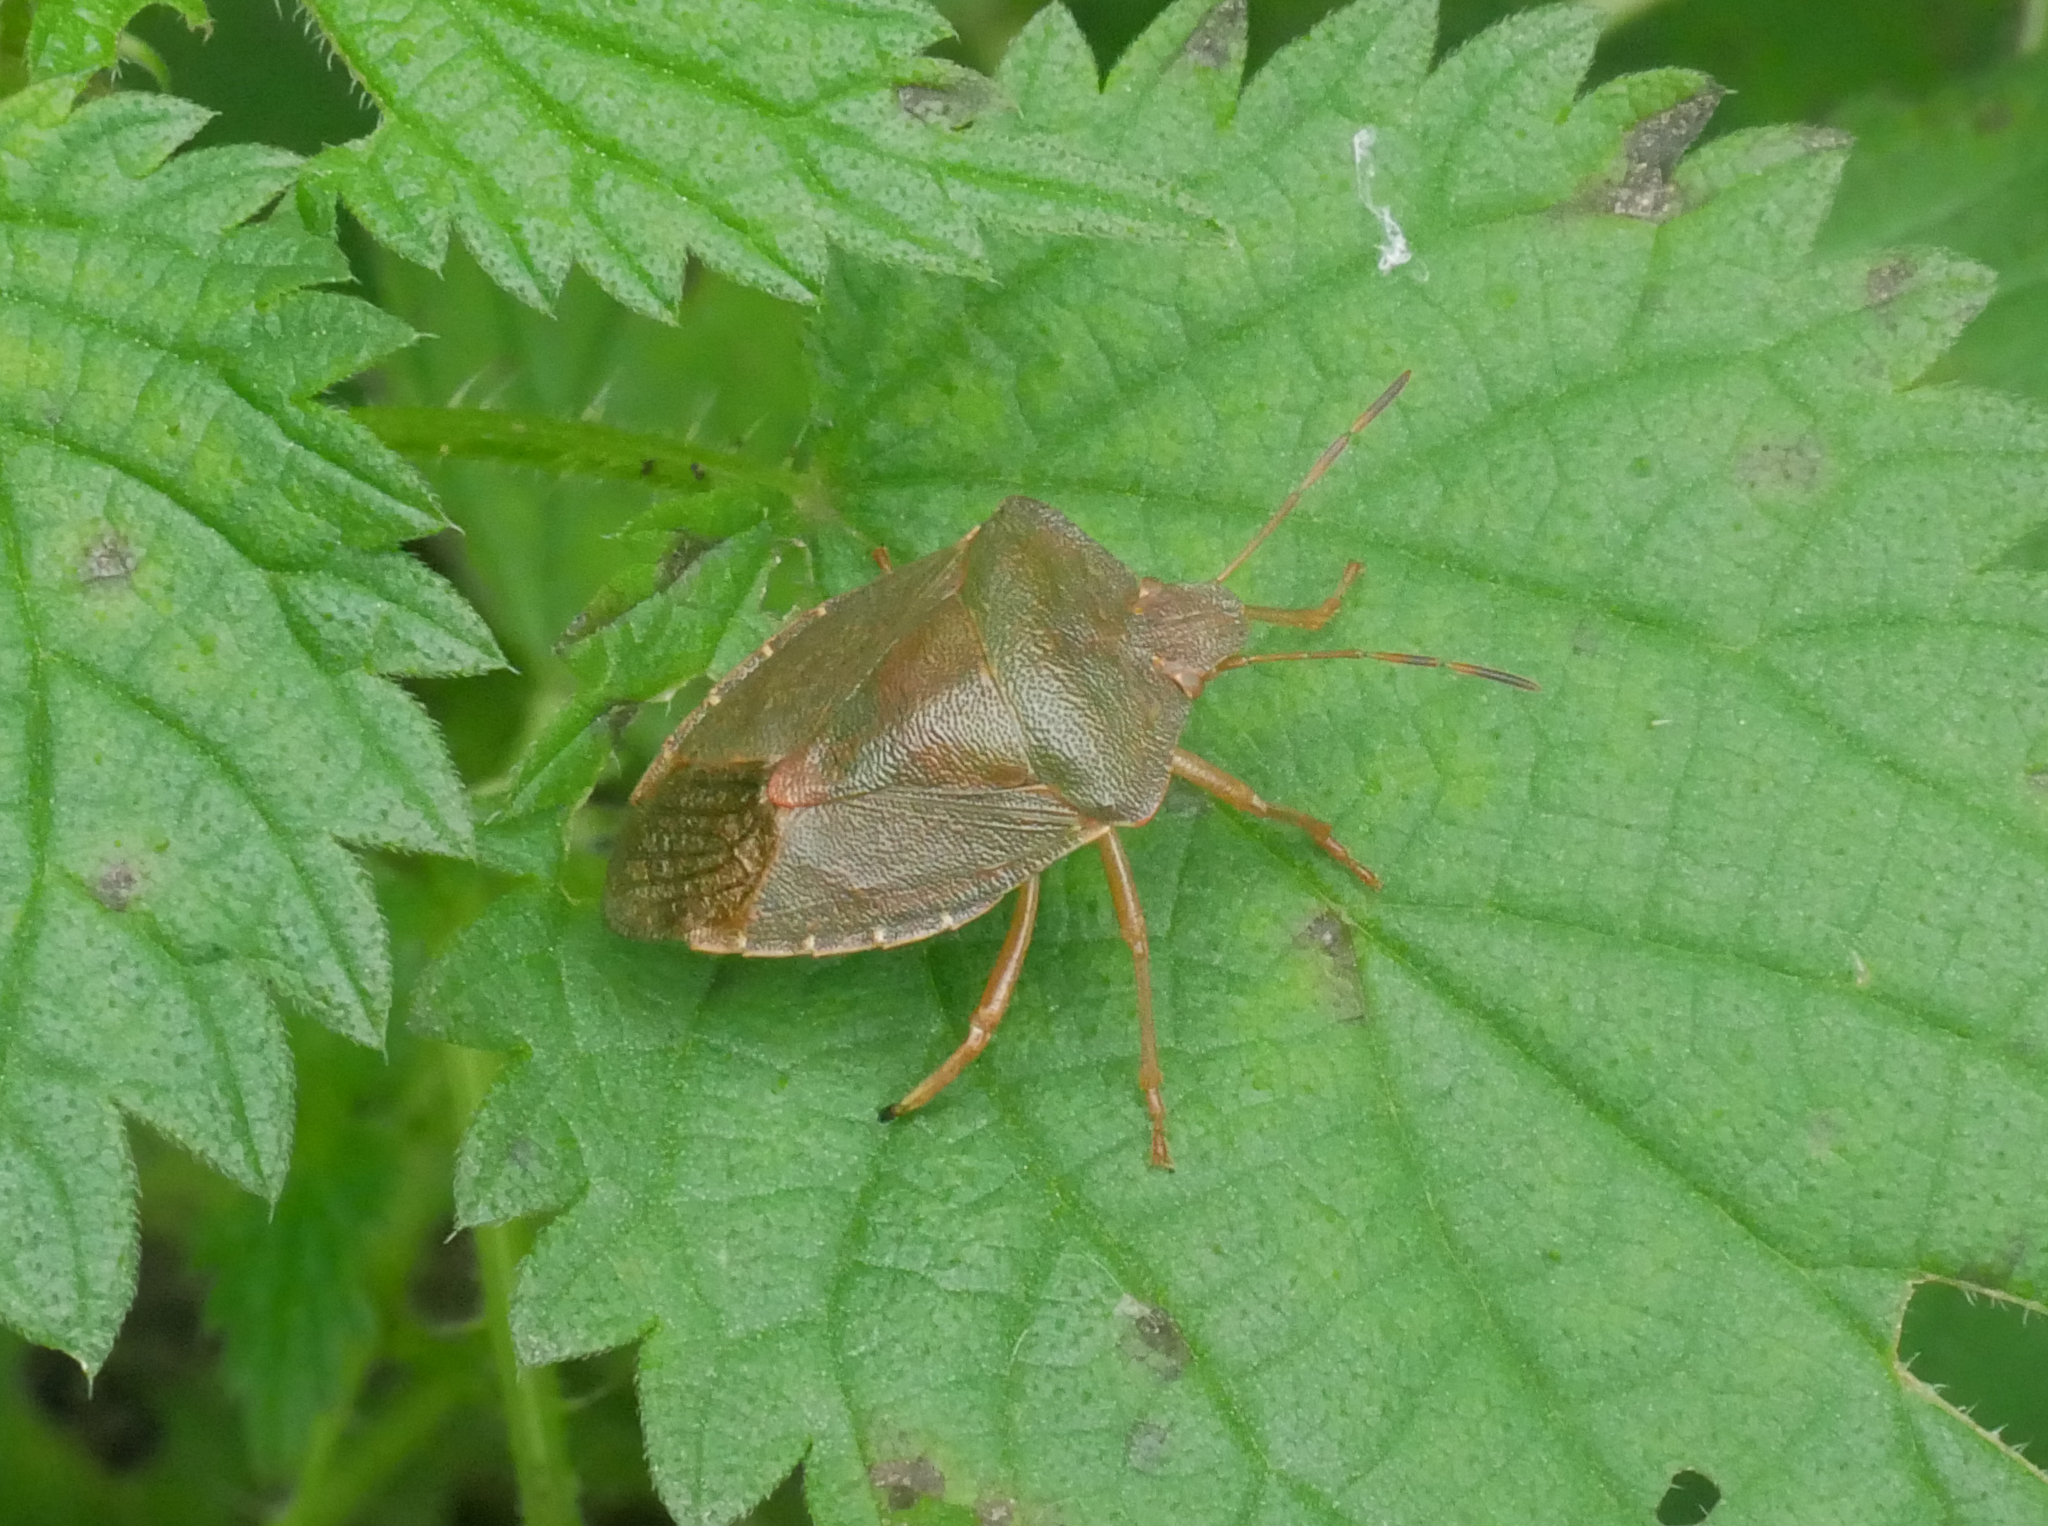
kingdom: Animalia
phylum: Arthropoda
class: Insecta
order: Hemiptera
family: Pentatomidae
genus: Palomena
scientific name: Palomena prasina
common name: Green shieldbug
